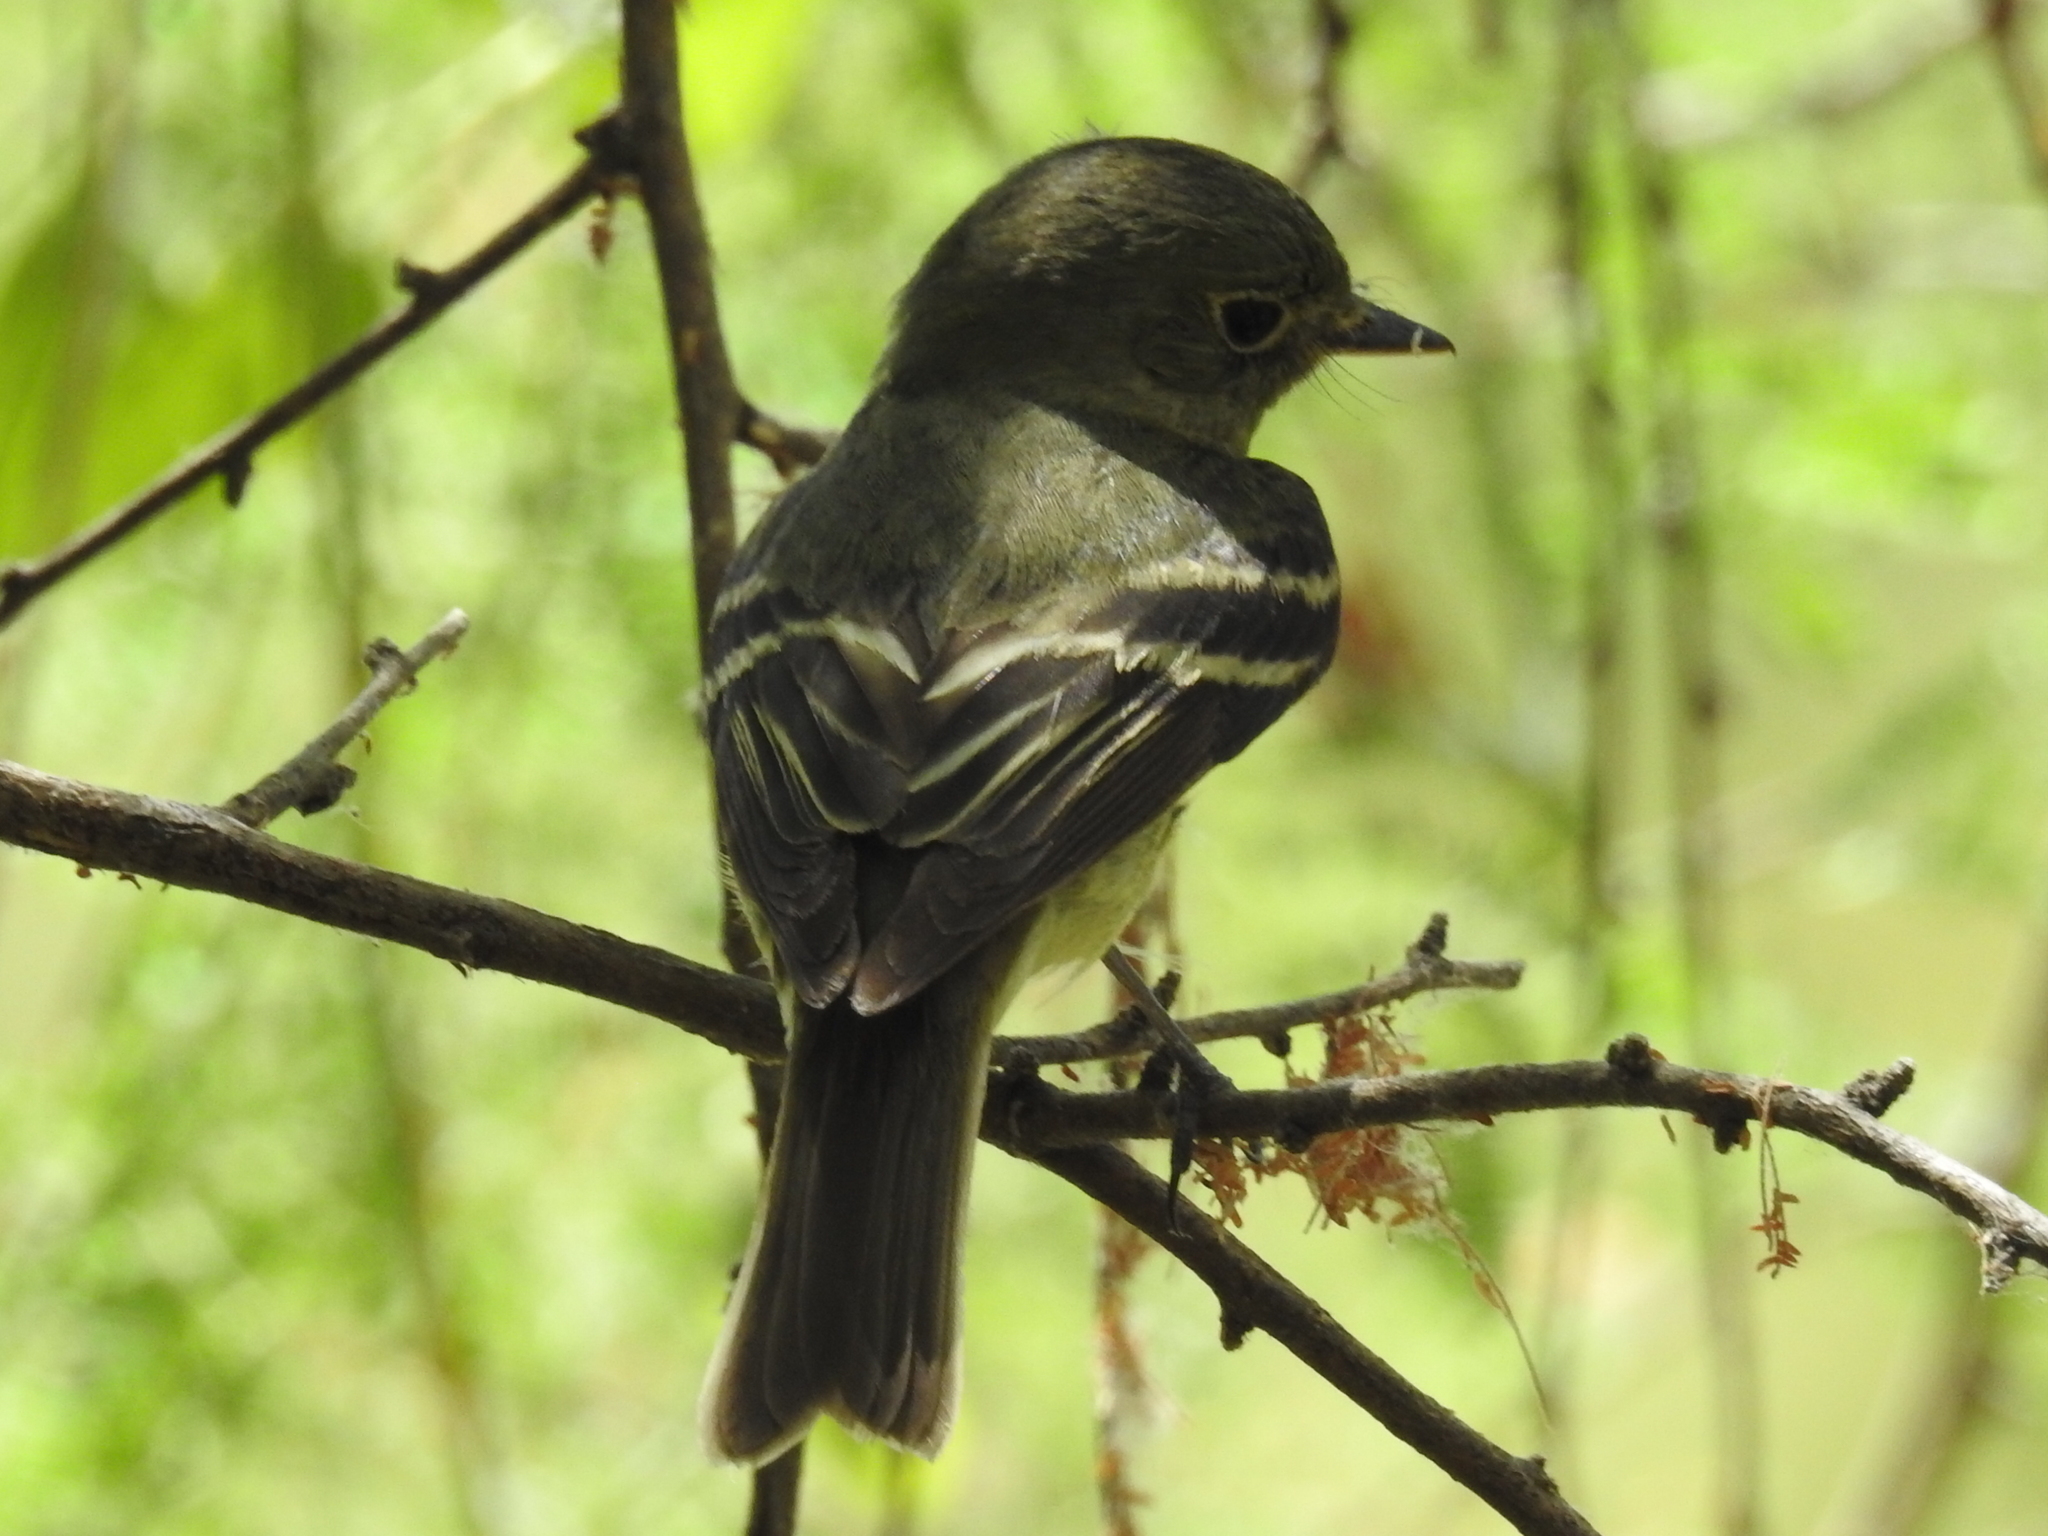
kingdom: Animalia
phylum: Chordata
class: Aves
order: Passeriformes
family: Tyrannidae
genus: Empidonax
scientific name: Empidonax flaviventris
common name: Yellow-bellied flycatcher
